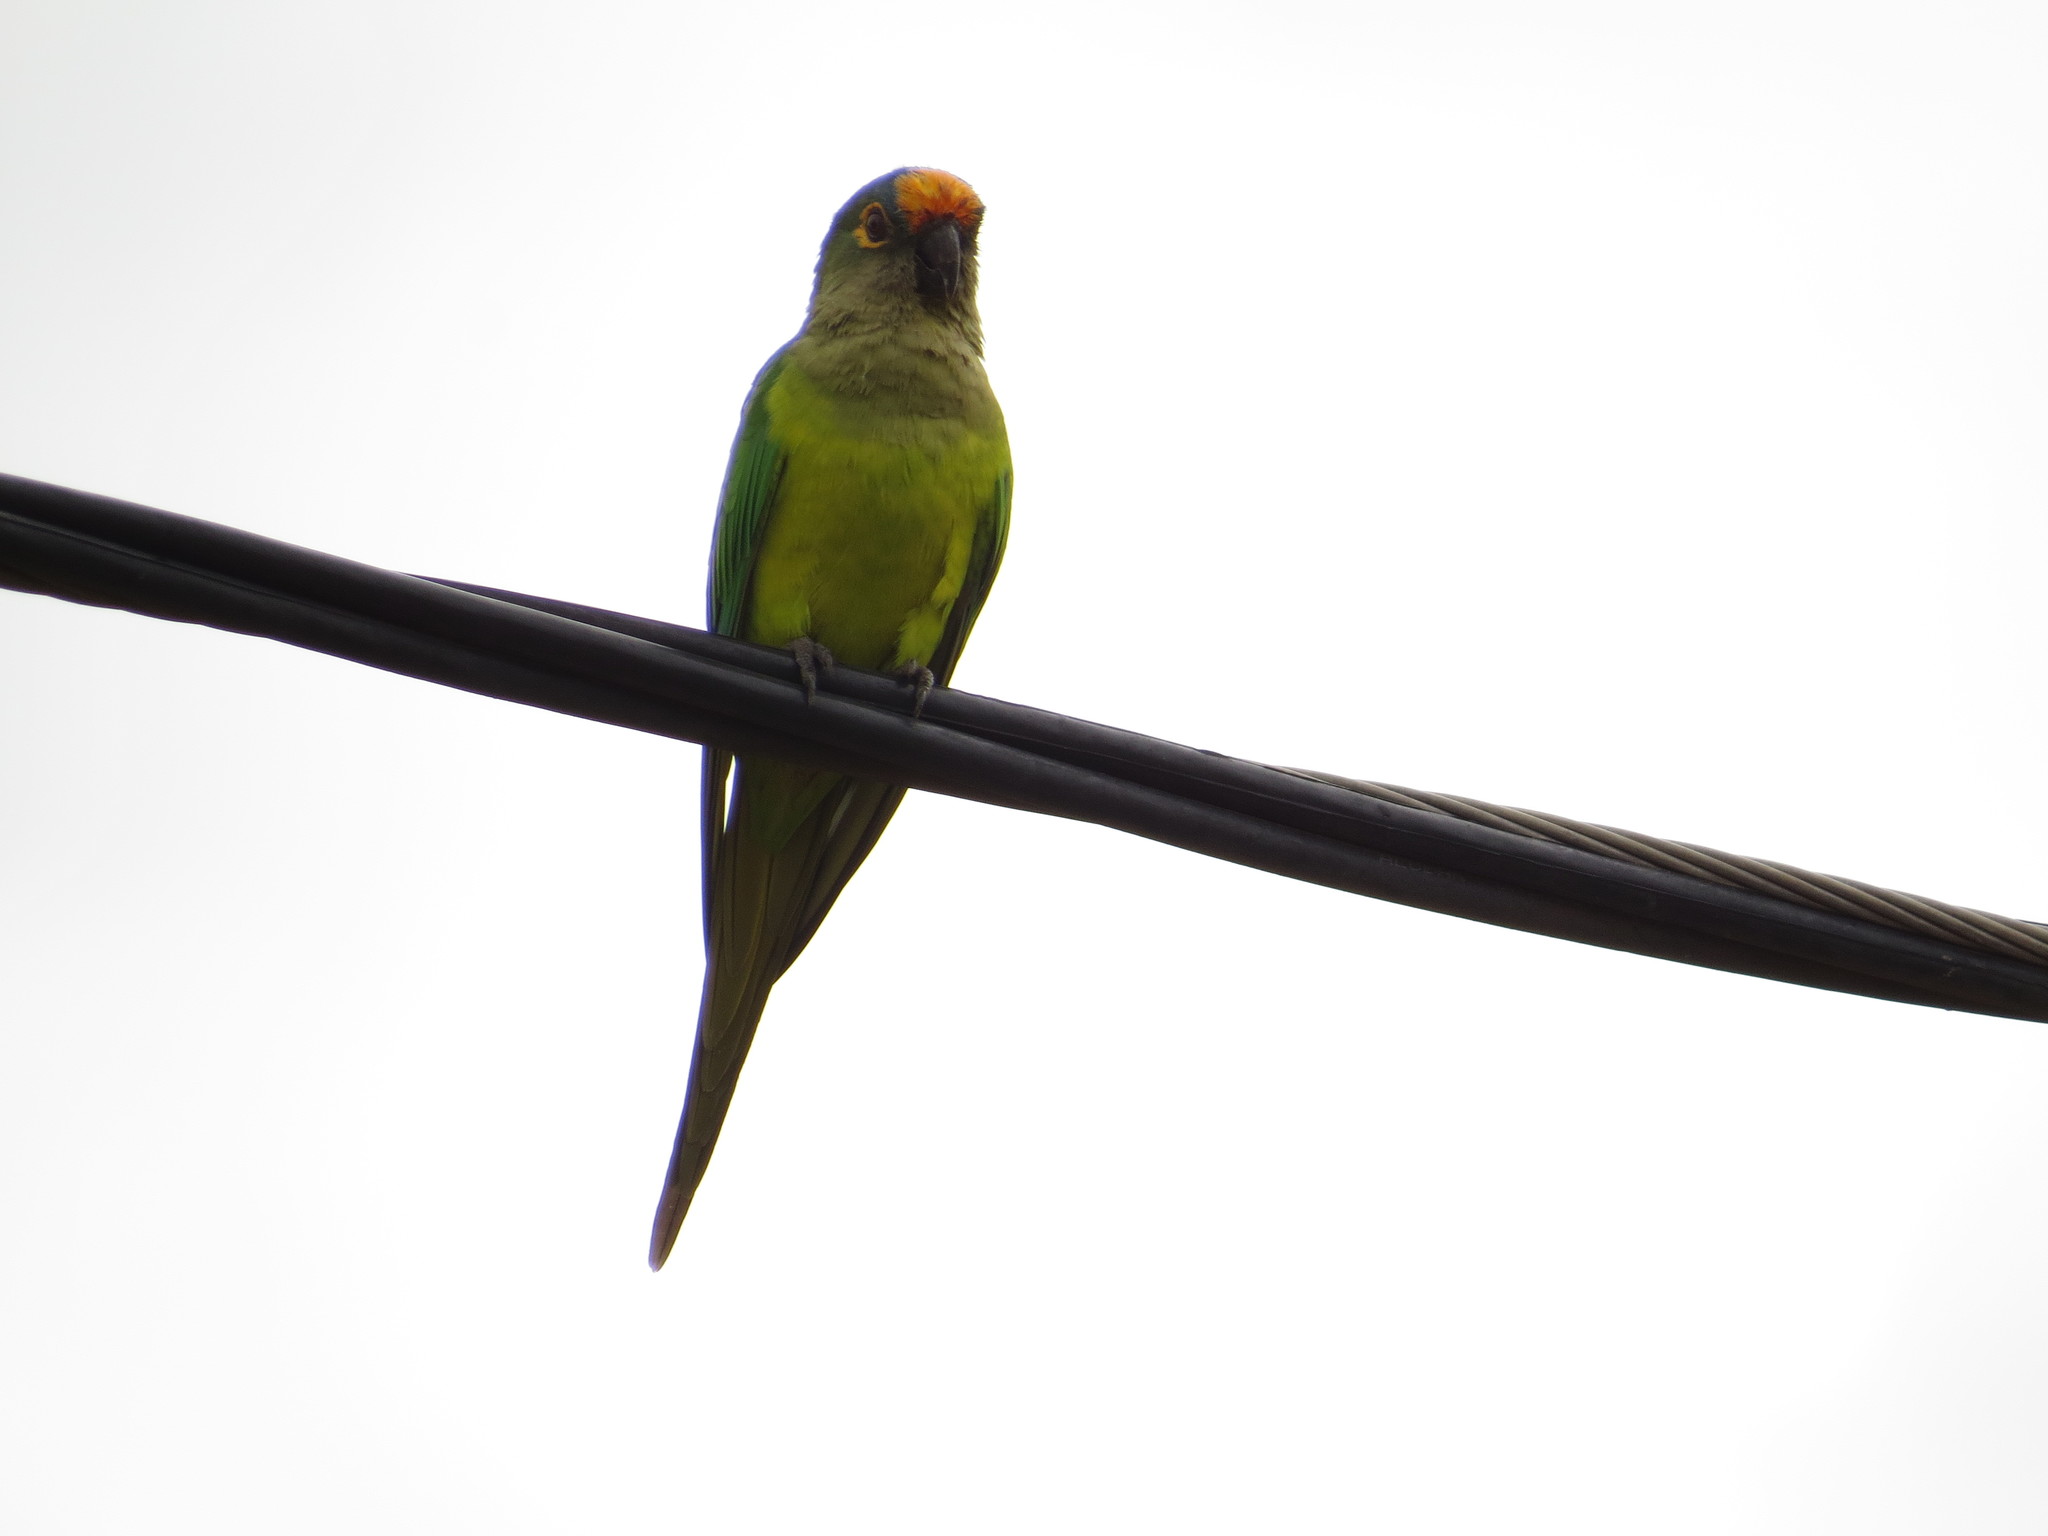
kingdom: Animalia
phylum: Chordata
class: Aves
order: Psittaciformes
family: Psittacidae
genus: Aratinga
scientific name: Aratinga aurea
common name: Peach-fronted parakeet
